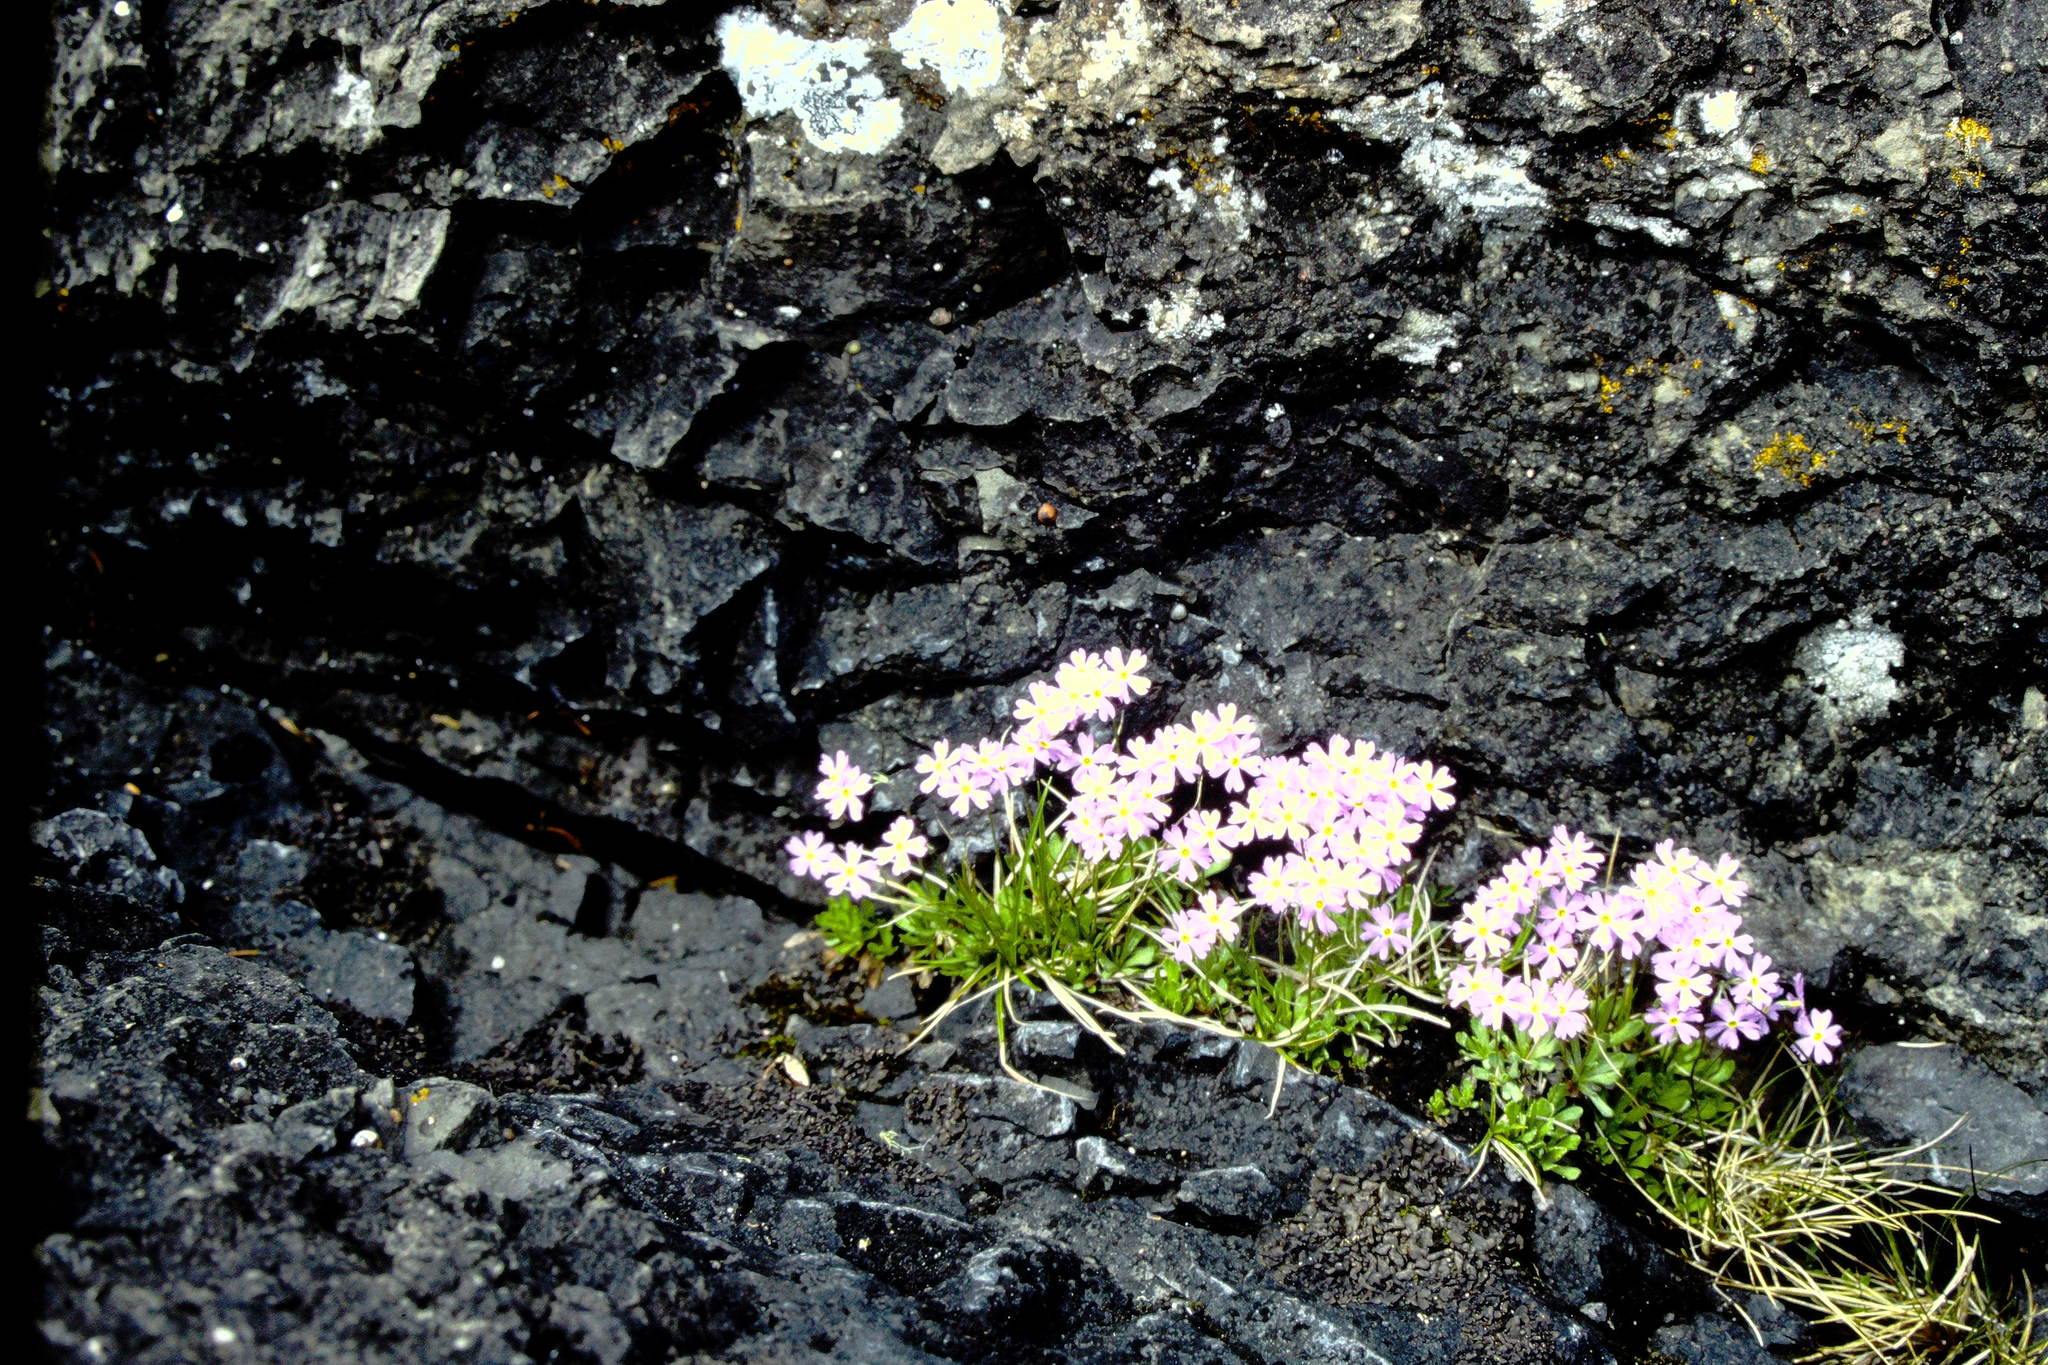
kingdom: Plantae
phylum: Tracheophyta
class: Magnoliopsida
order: Ericales
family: Primulaceae
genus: Primula
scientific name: Primula mistassinica
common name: Bird's-eye primrose
